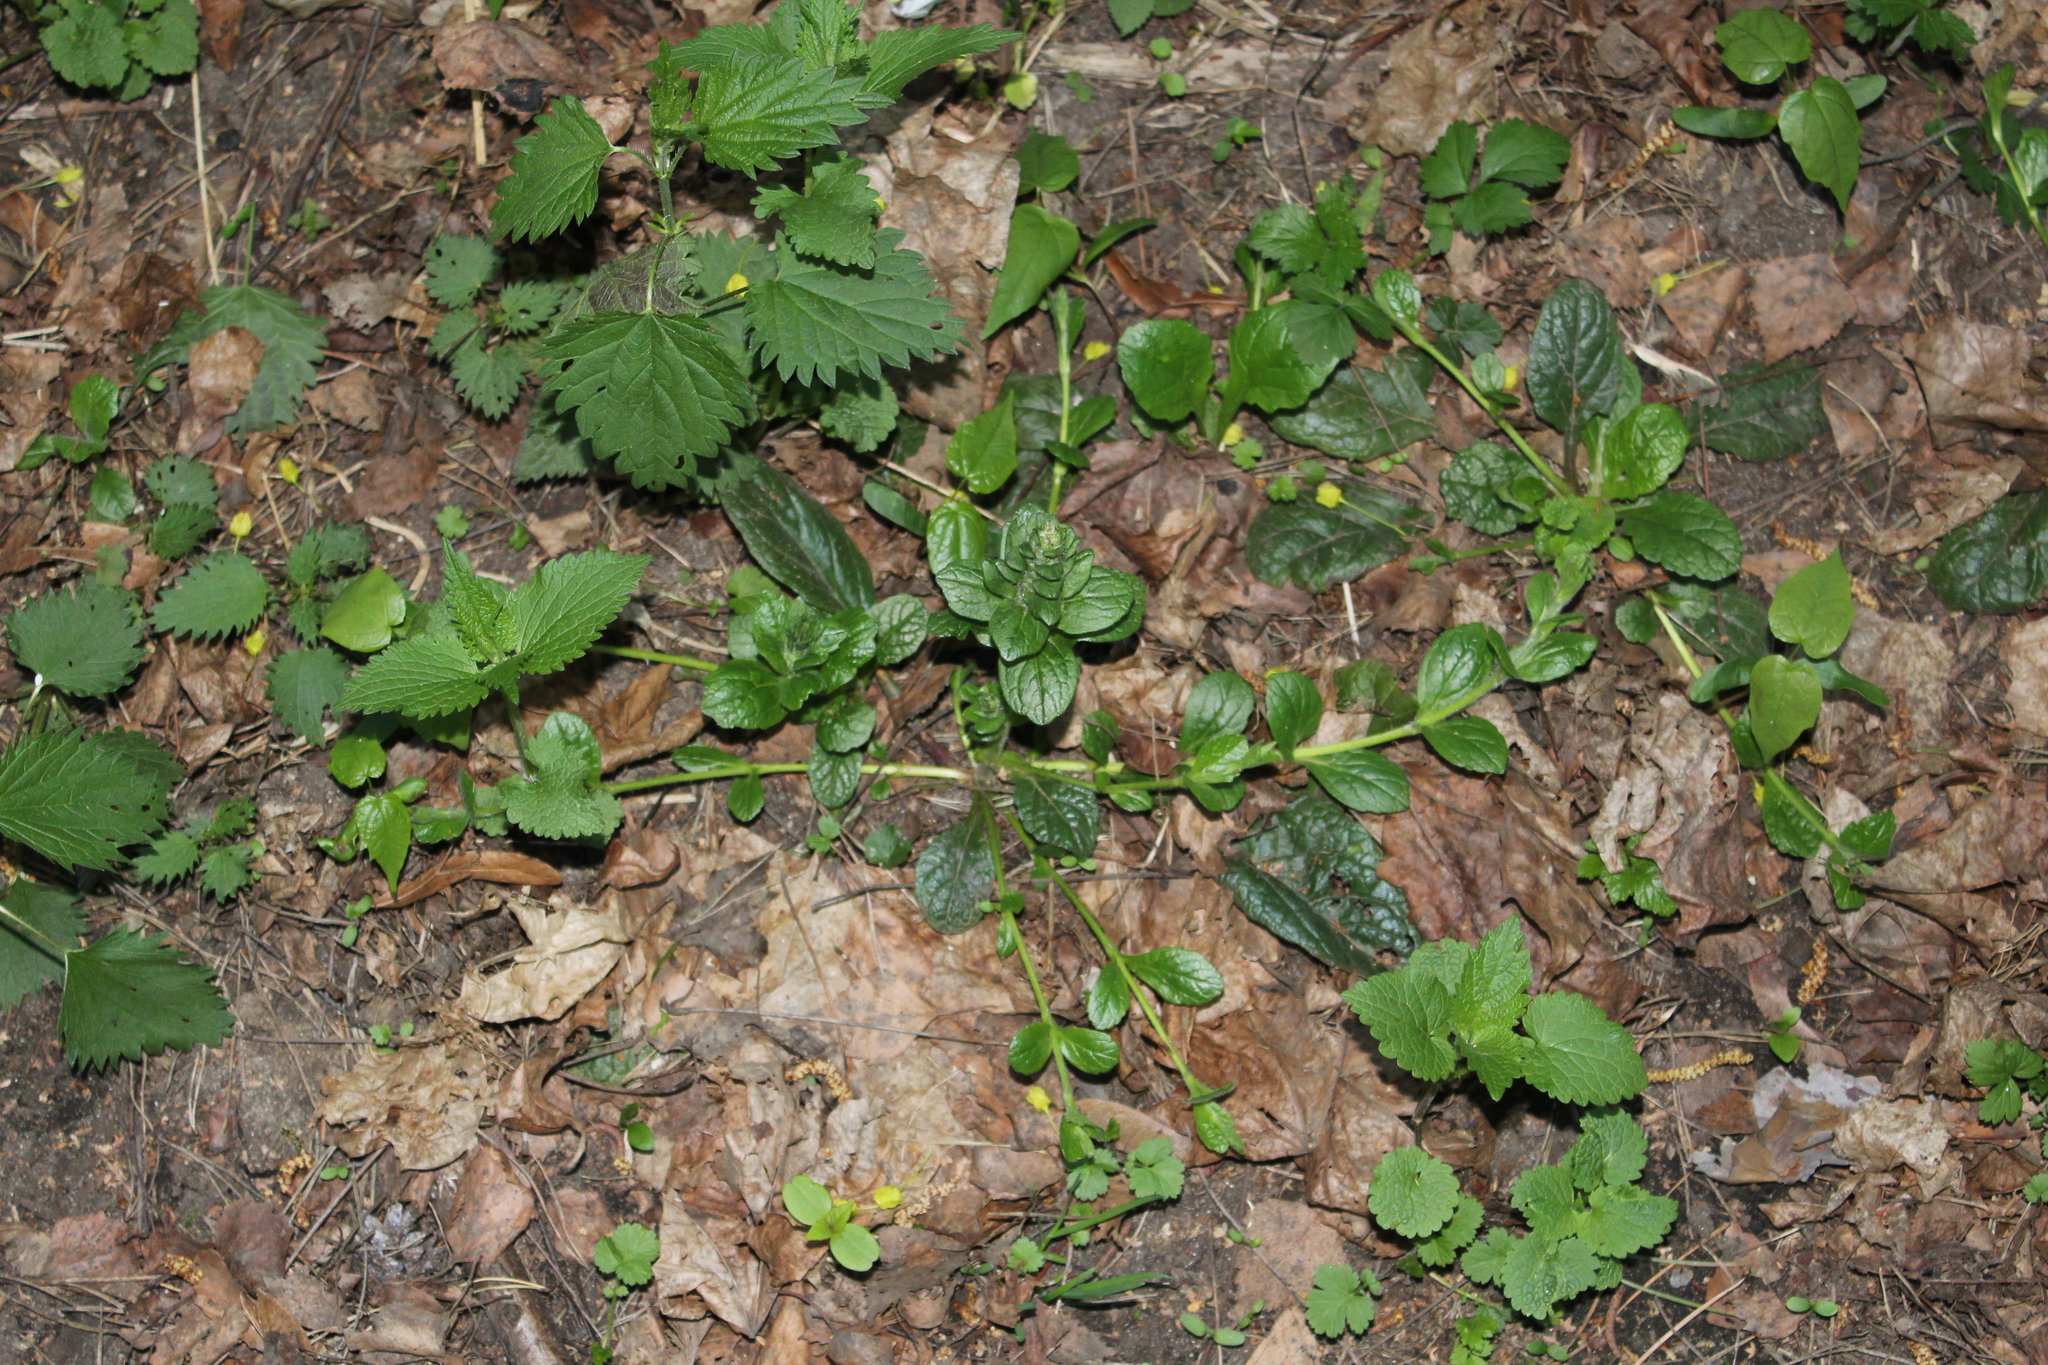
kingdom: Plantae
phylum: Tracheophyta
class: Magnoliopsida
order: Lamiales
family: Lamiaceae
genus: Ajuga
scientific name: Ajuga reptans
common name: Bugle
